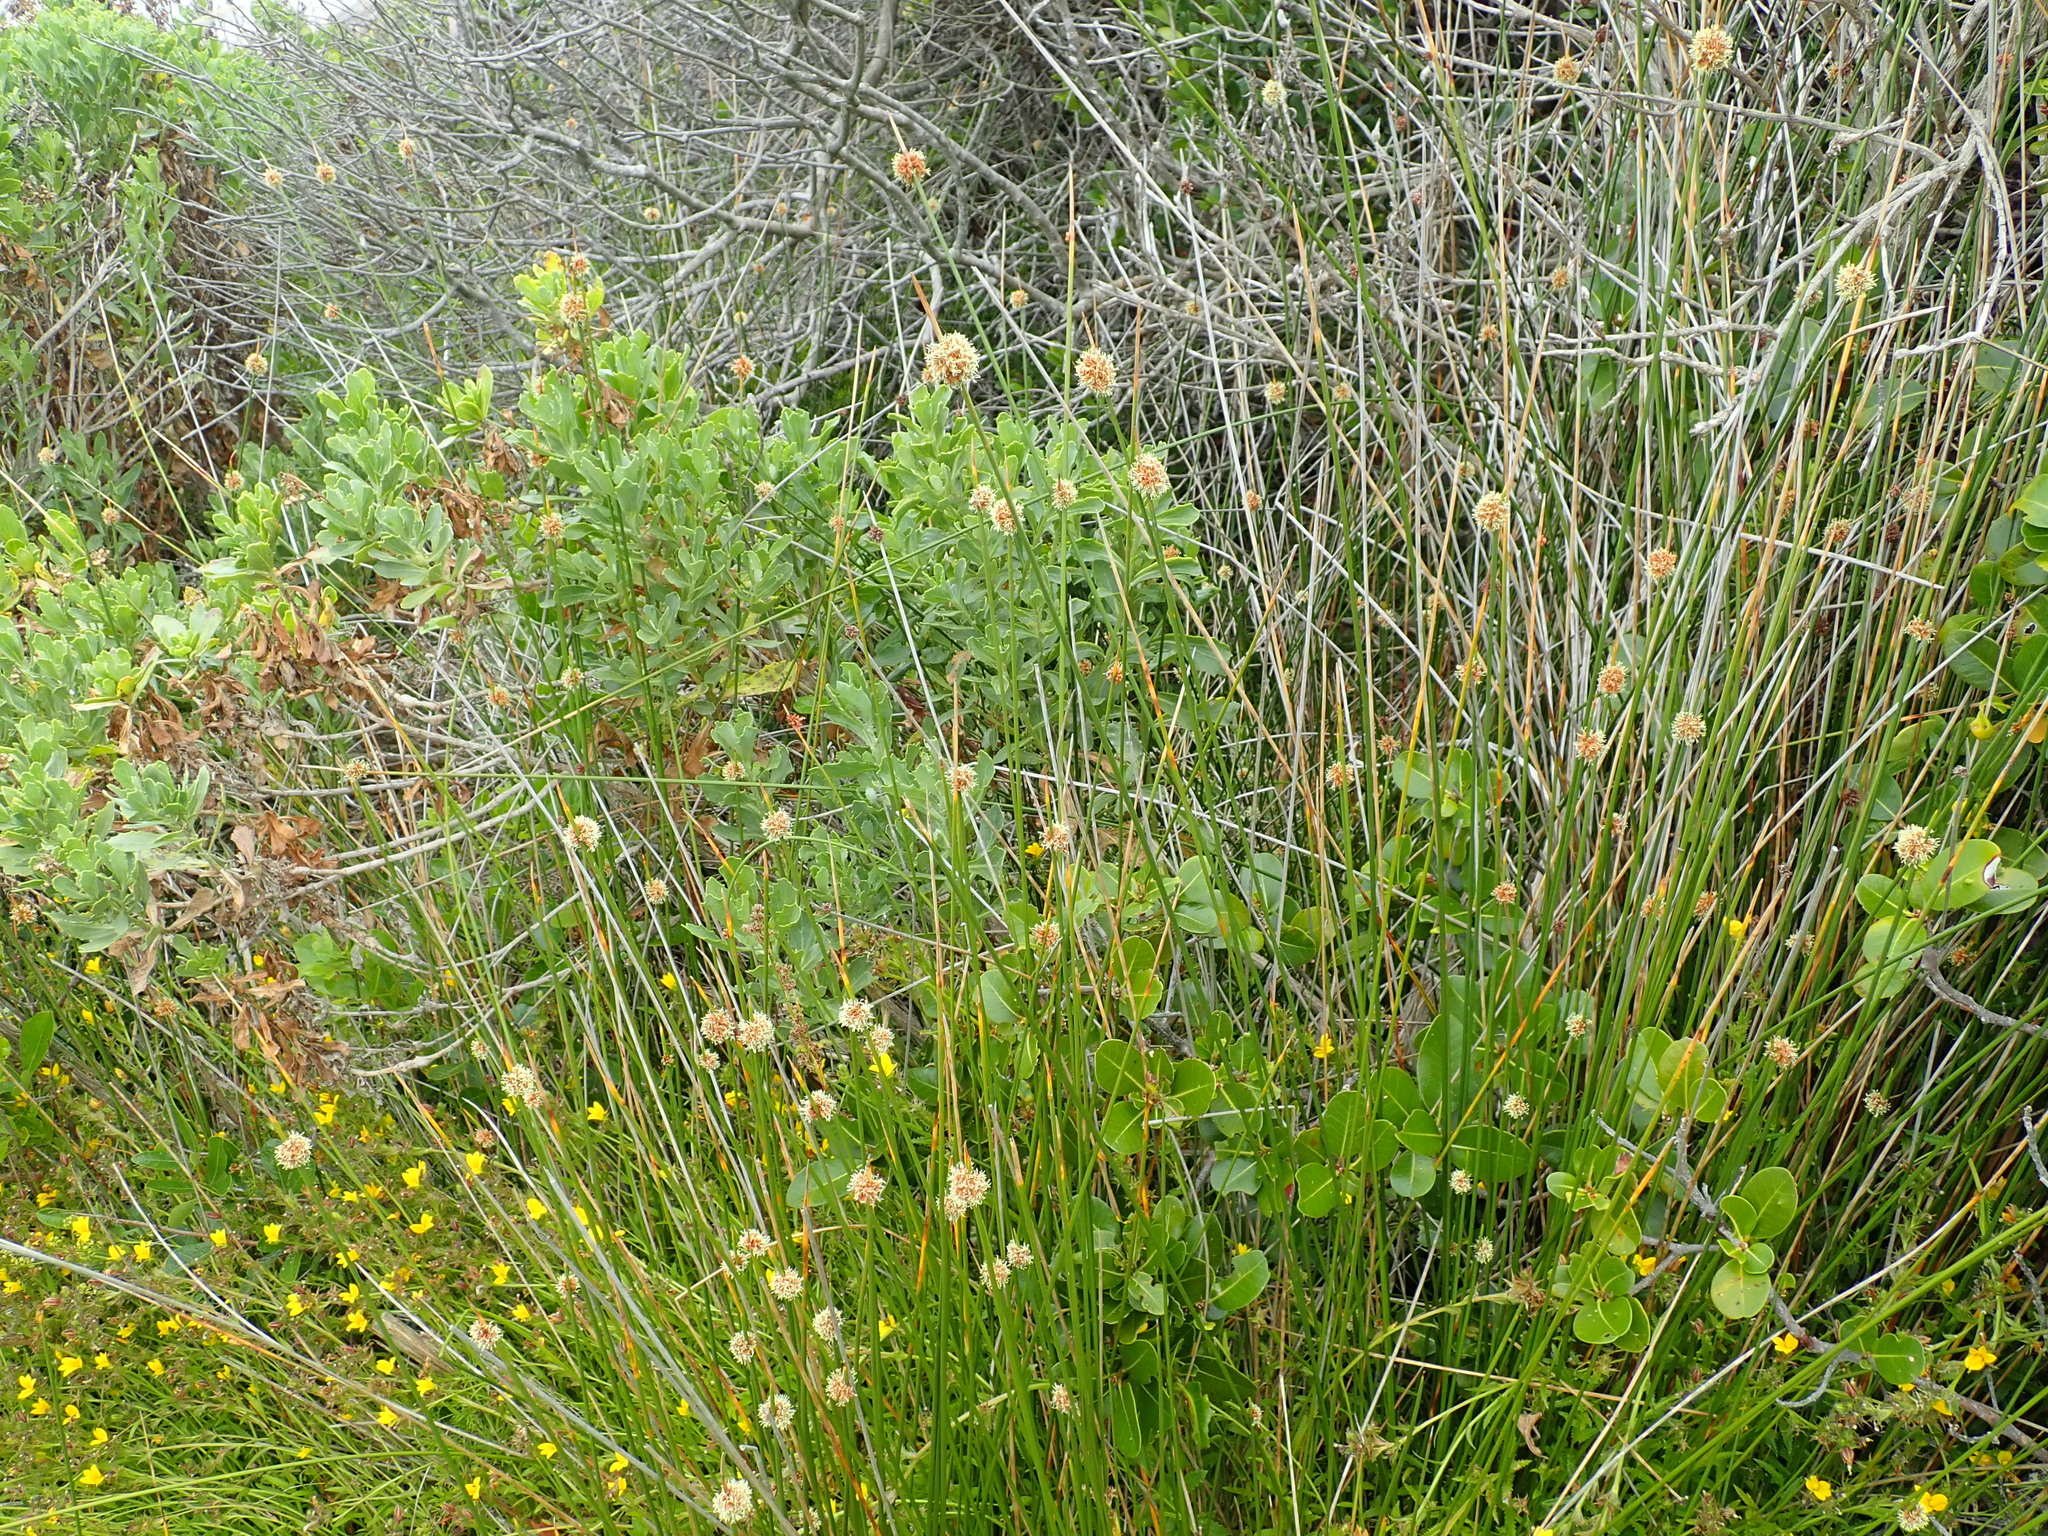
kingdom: Plantae
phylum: Tracheophyta
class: Magnoliopsida
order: Asterales
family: Campanulaceae
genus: Monopsis
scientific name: Monopsis lutea
